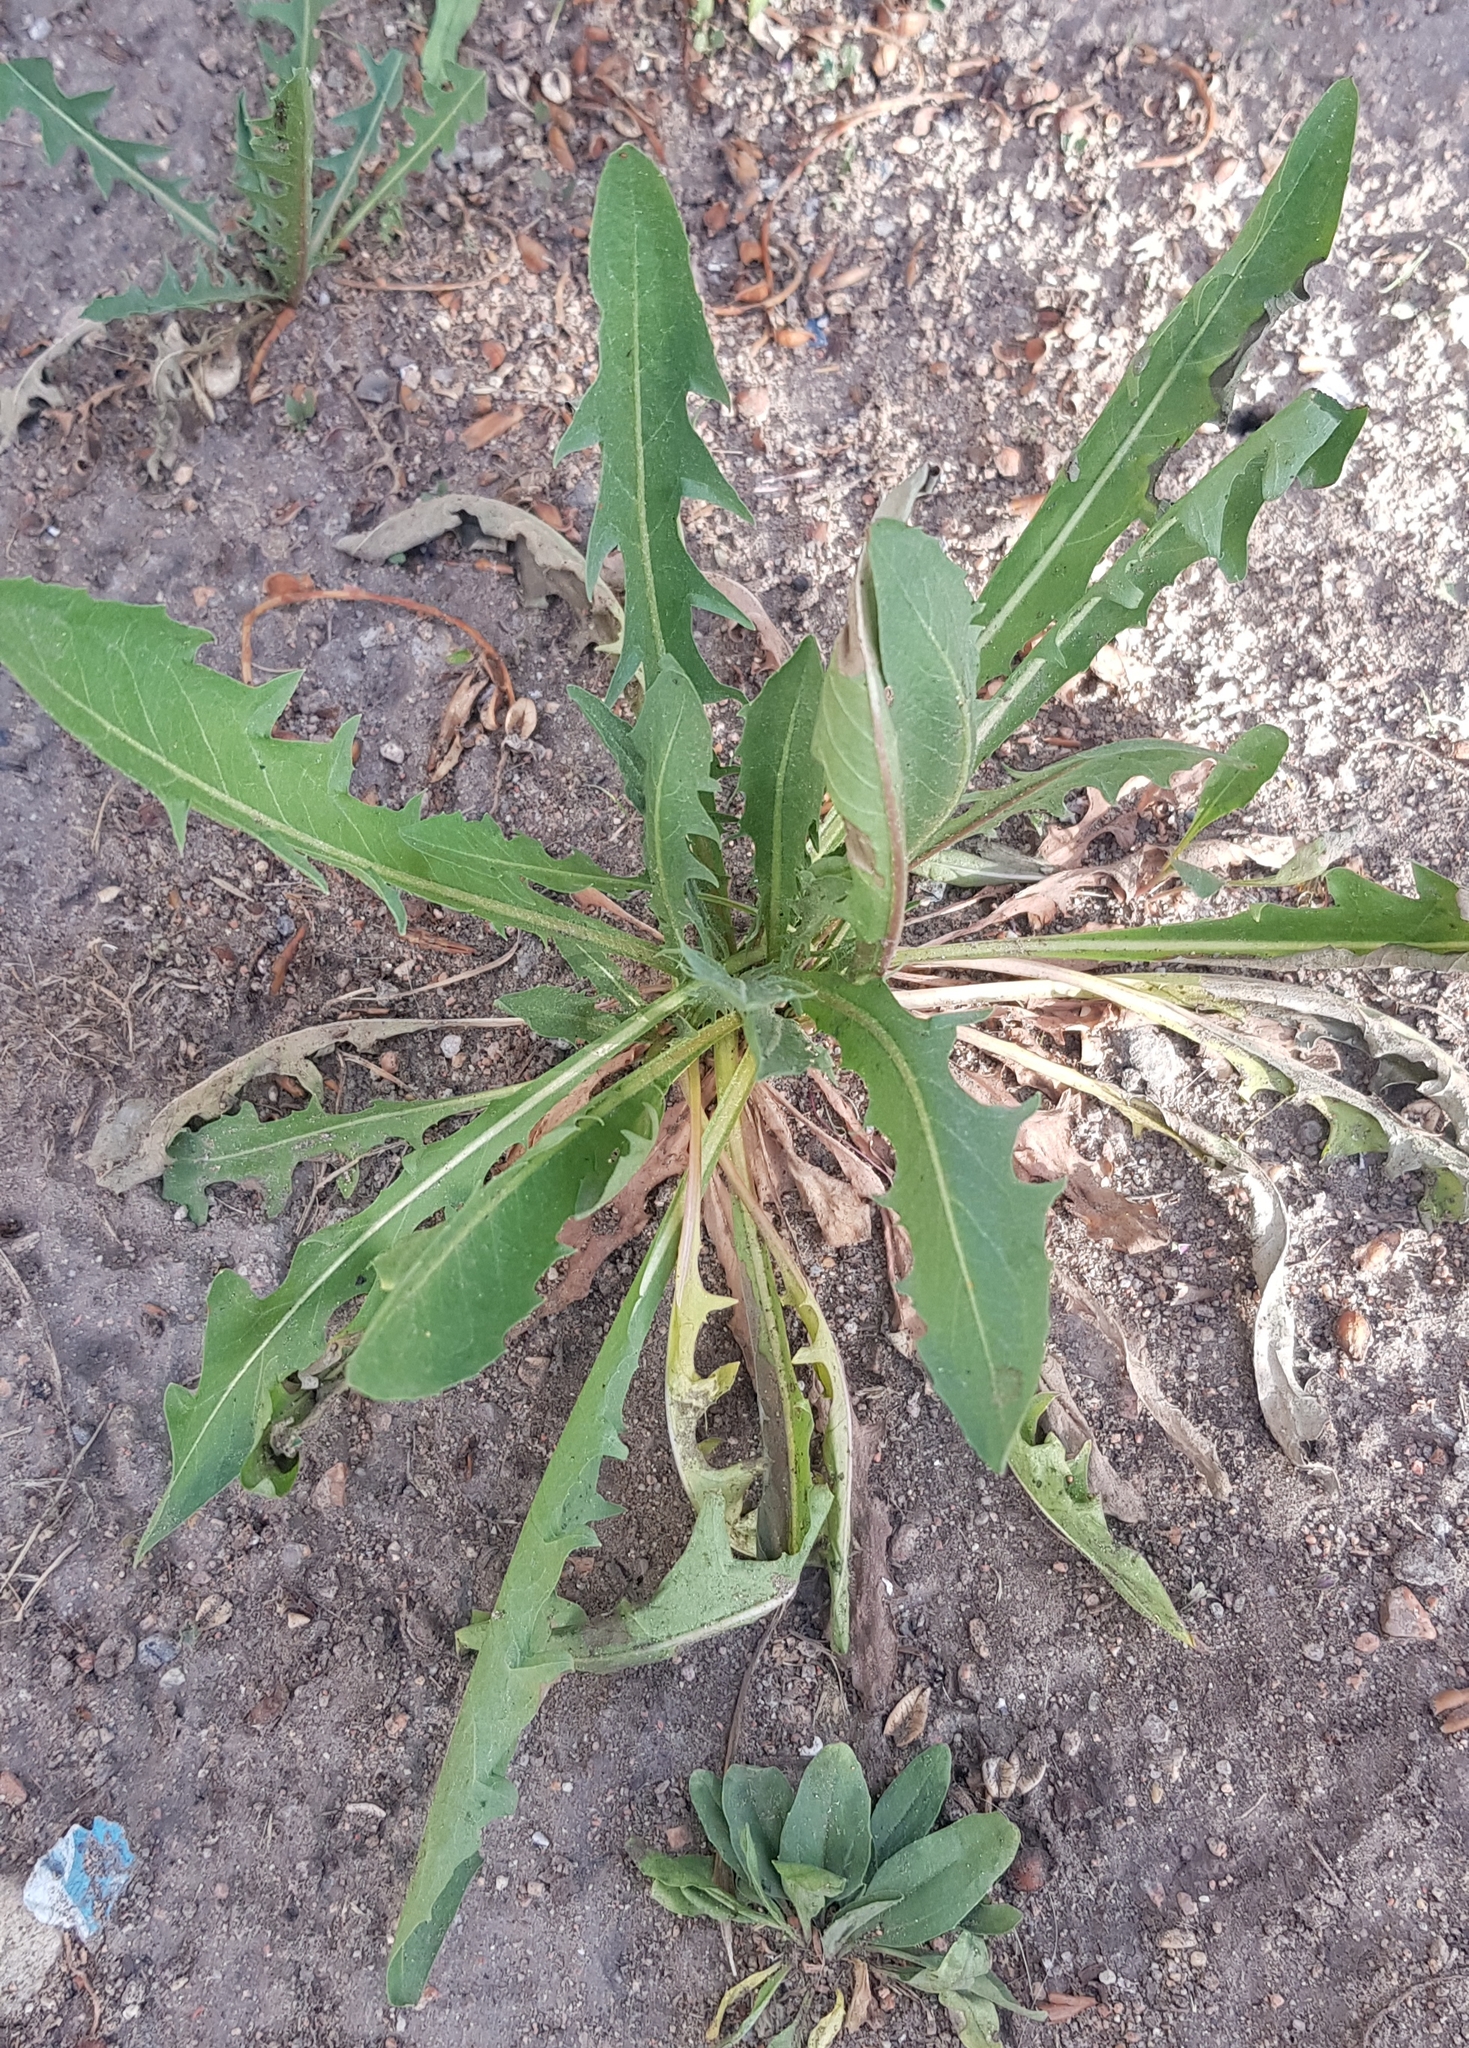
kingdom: Plantae
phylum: Tracheophyta
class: Magnoliopsida
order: Asterales
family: Asteraceae
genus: Taraxacum
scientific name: Taraxacum officinale
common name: Common dandelion
